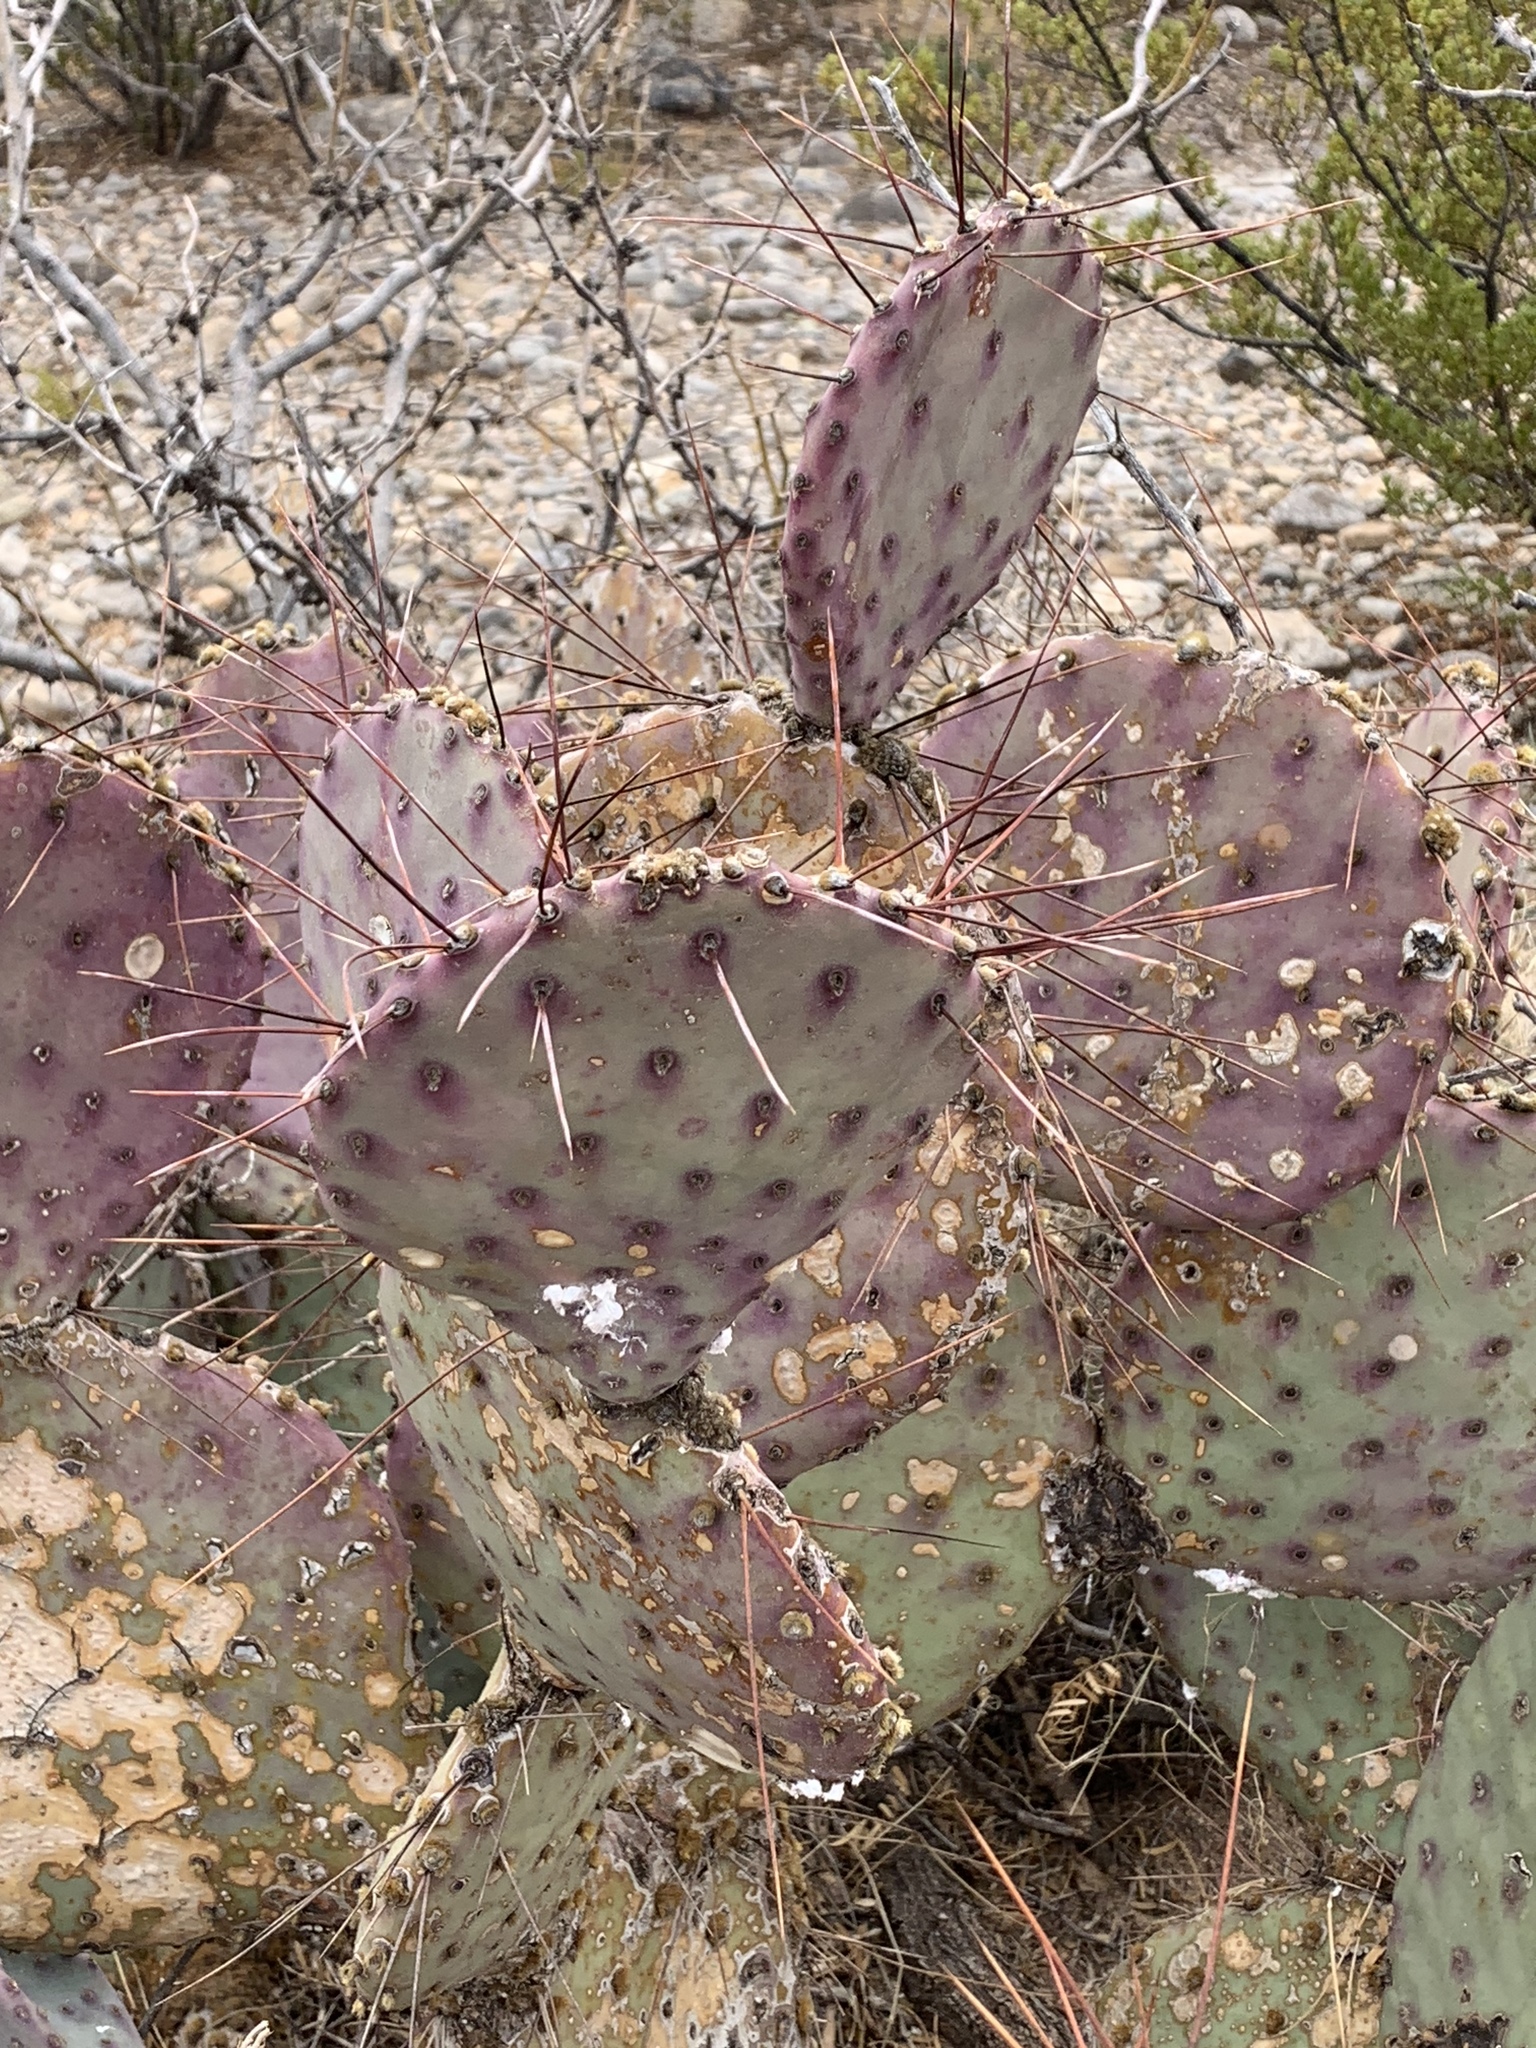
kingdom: Plantae
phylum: Tracheophyta
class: Magnoliopsida
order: Caryophyllales
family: Cactaceae
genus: Opuntia
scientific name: Opuntia macrocentra
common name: Purple prickly-pear
